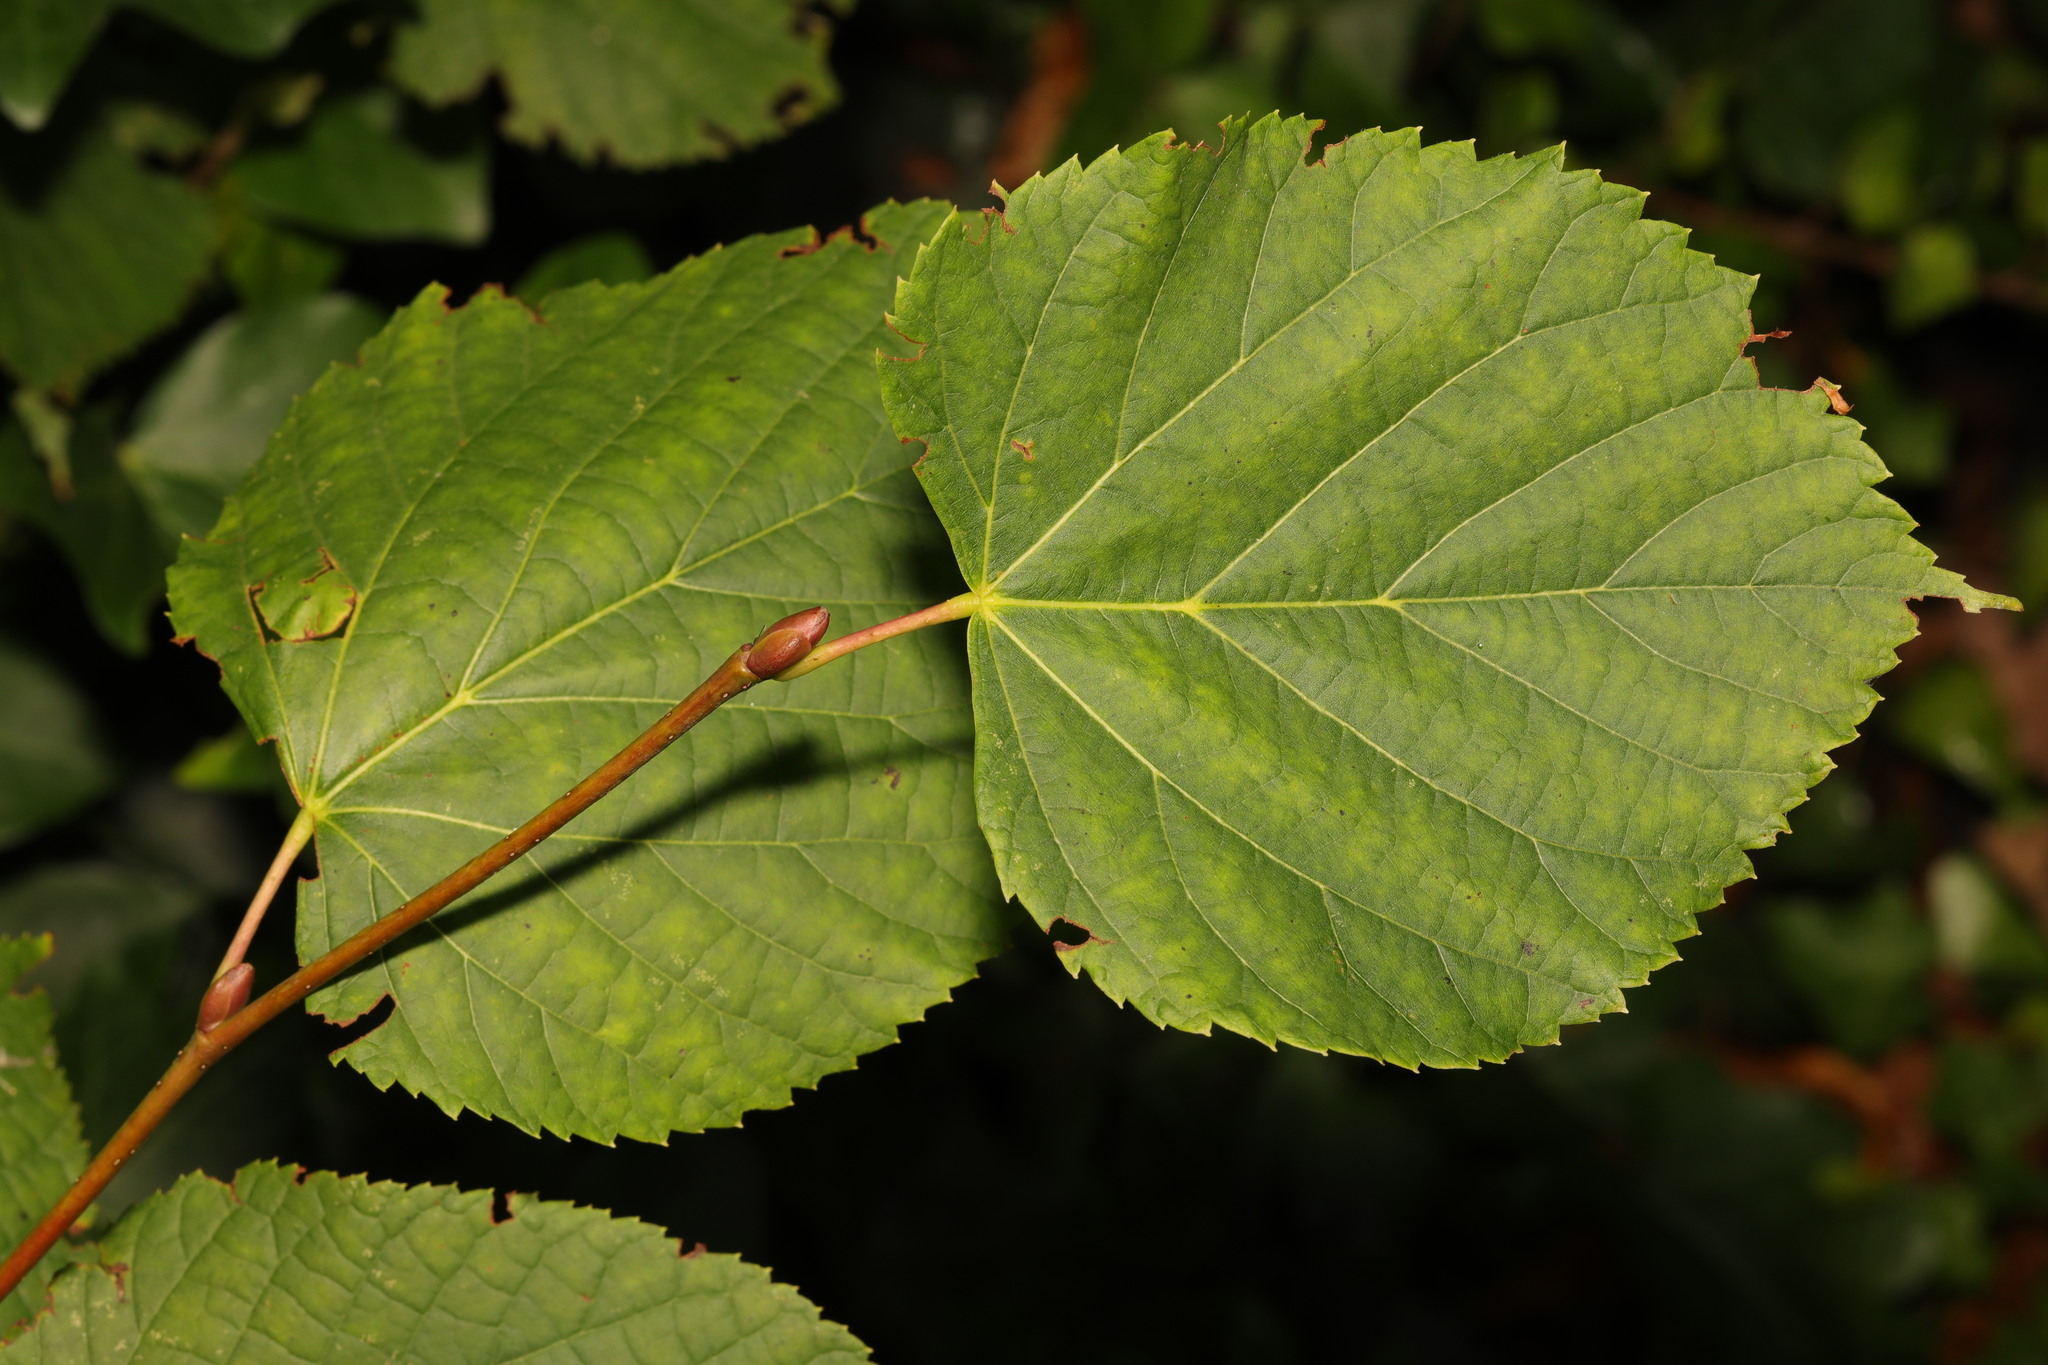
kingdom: Plantae
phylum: Tracheophyta
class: Magnoliopsida
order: Malvales
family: Malvaceae
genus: Tilia
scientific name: Tilia europaea
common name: European linden
